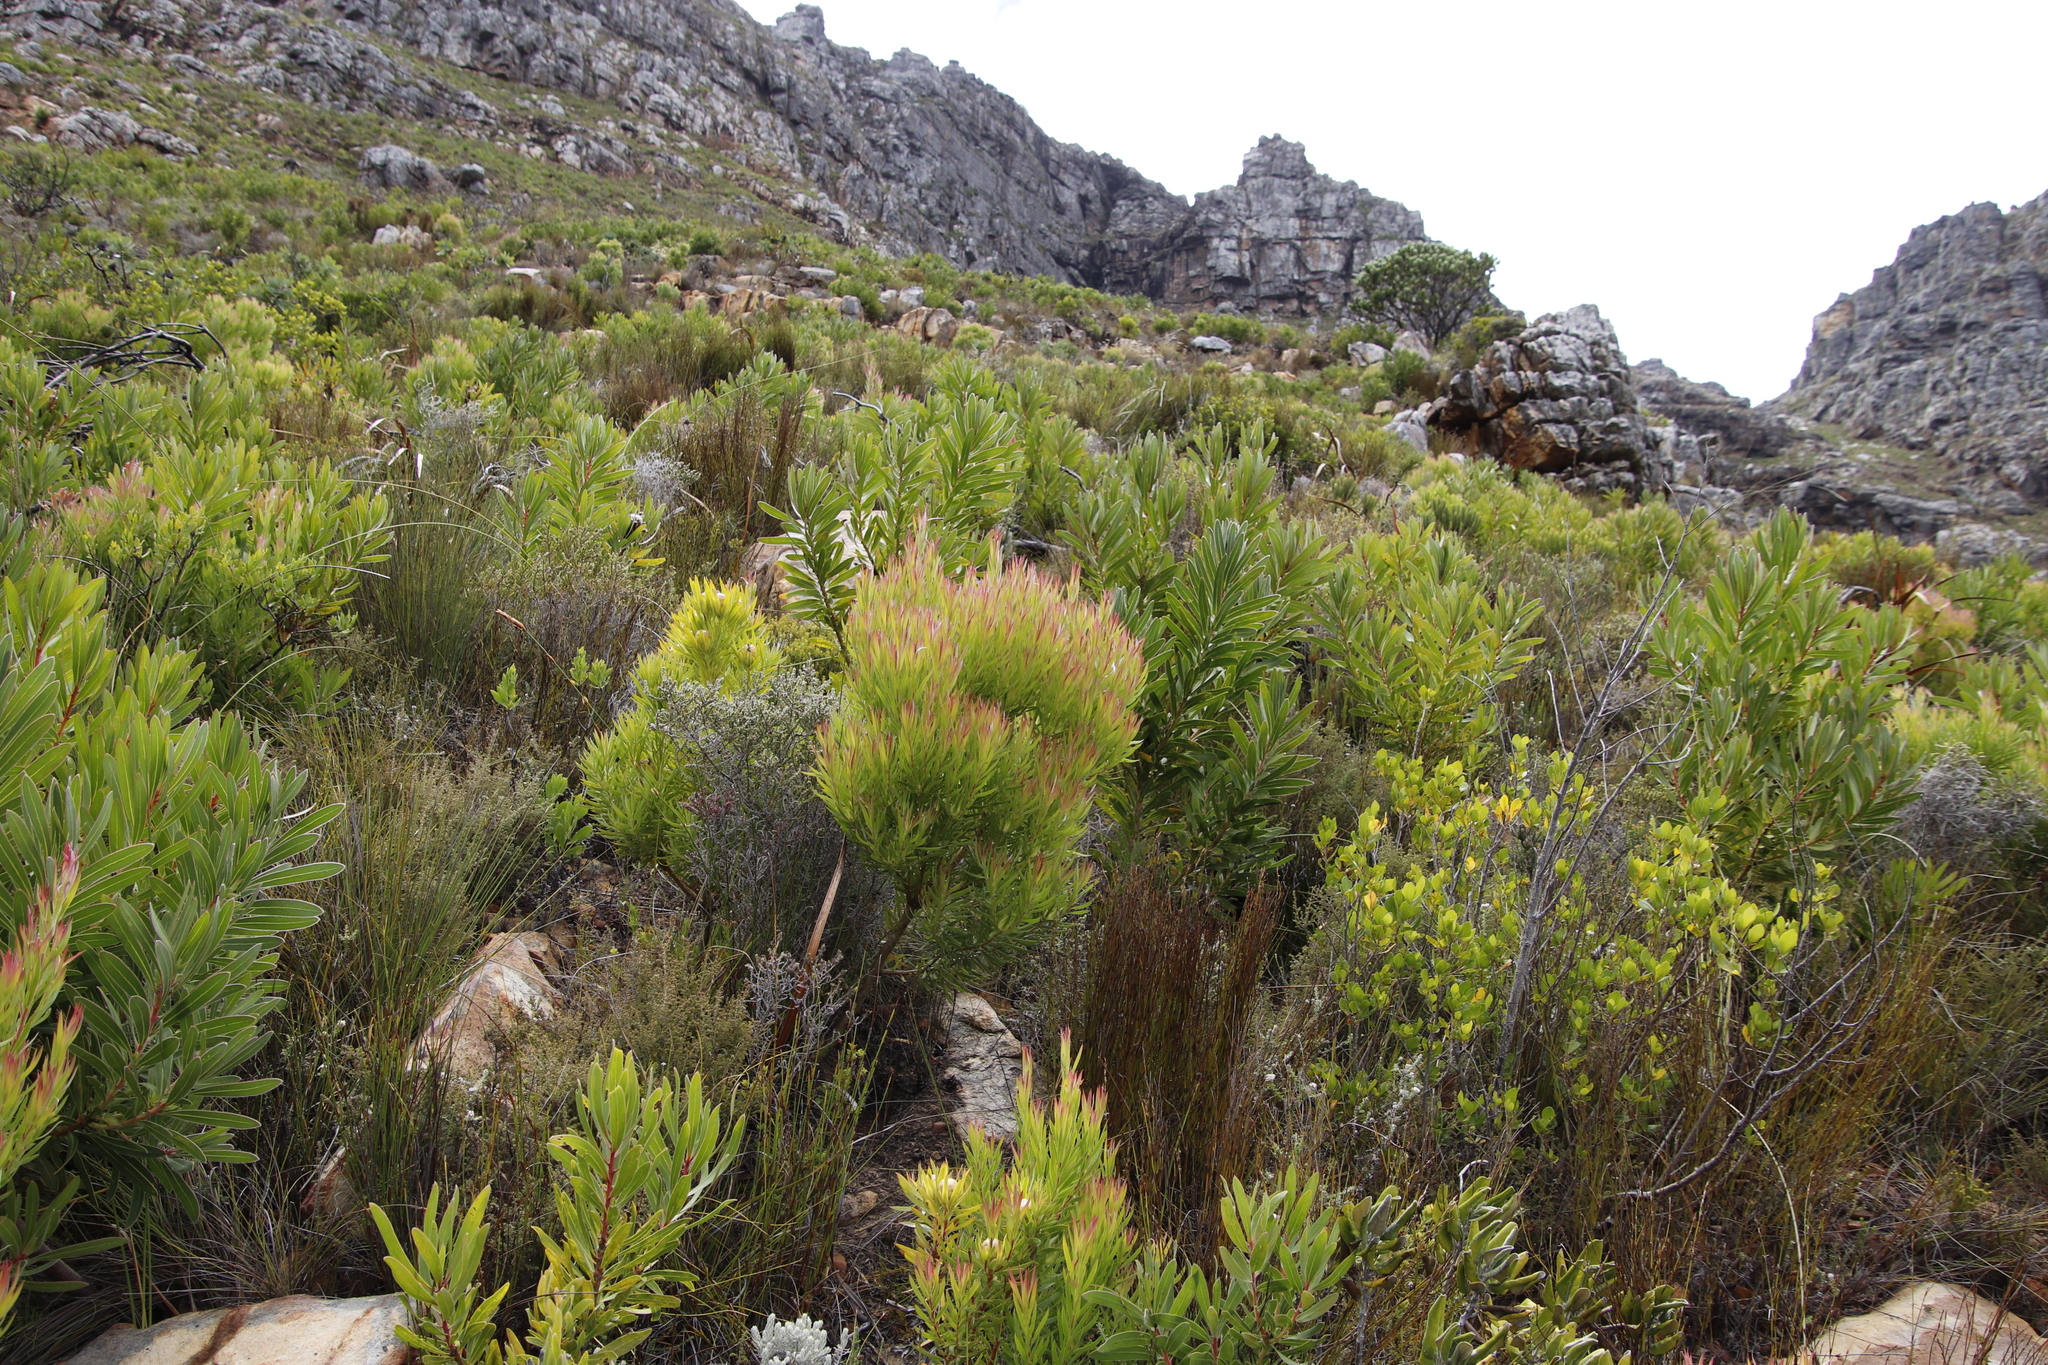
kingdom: Plantae
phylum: Tracheophyta
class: Magnoliopsida
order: Proteales
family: Proteaceae
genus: Leucadendron
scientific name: Leucadendron xanthoconus
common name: Sickle-leaf conebush
